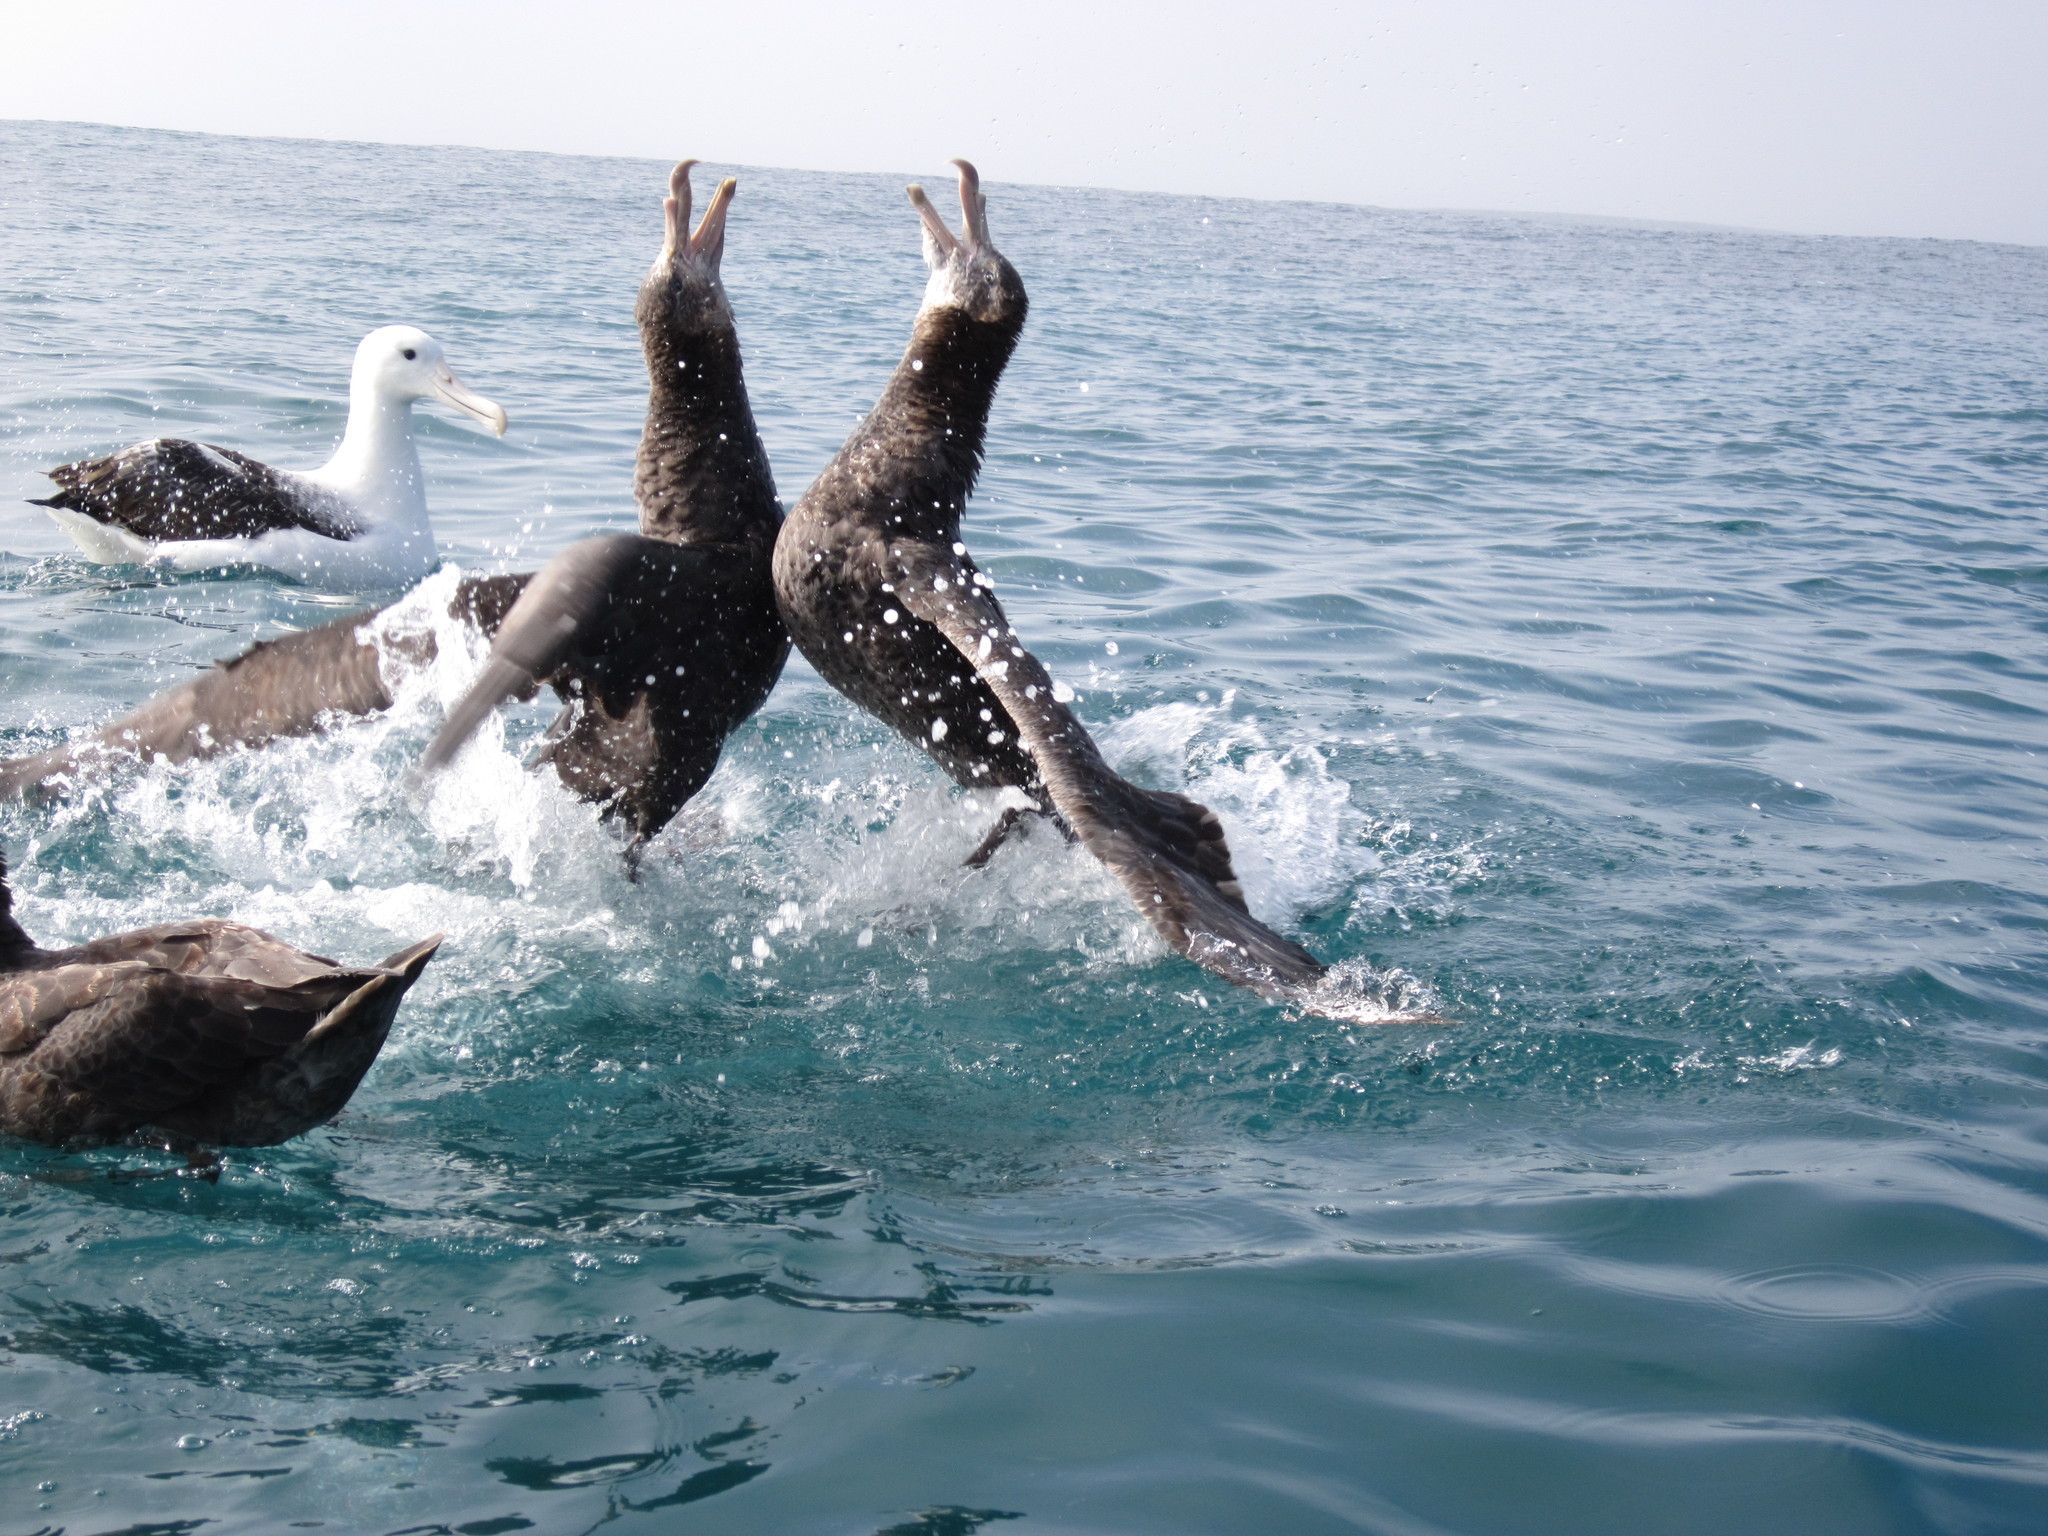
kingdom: Animalia
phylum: Chordata
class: Aves
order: Procellariiformes
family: Procellariidae
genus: Macronectes
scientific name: Macronectes halli
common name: Northern giant petrel
